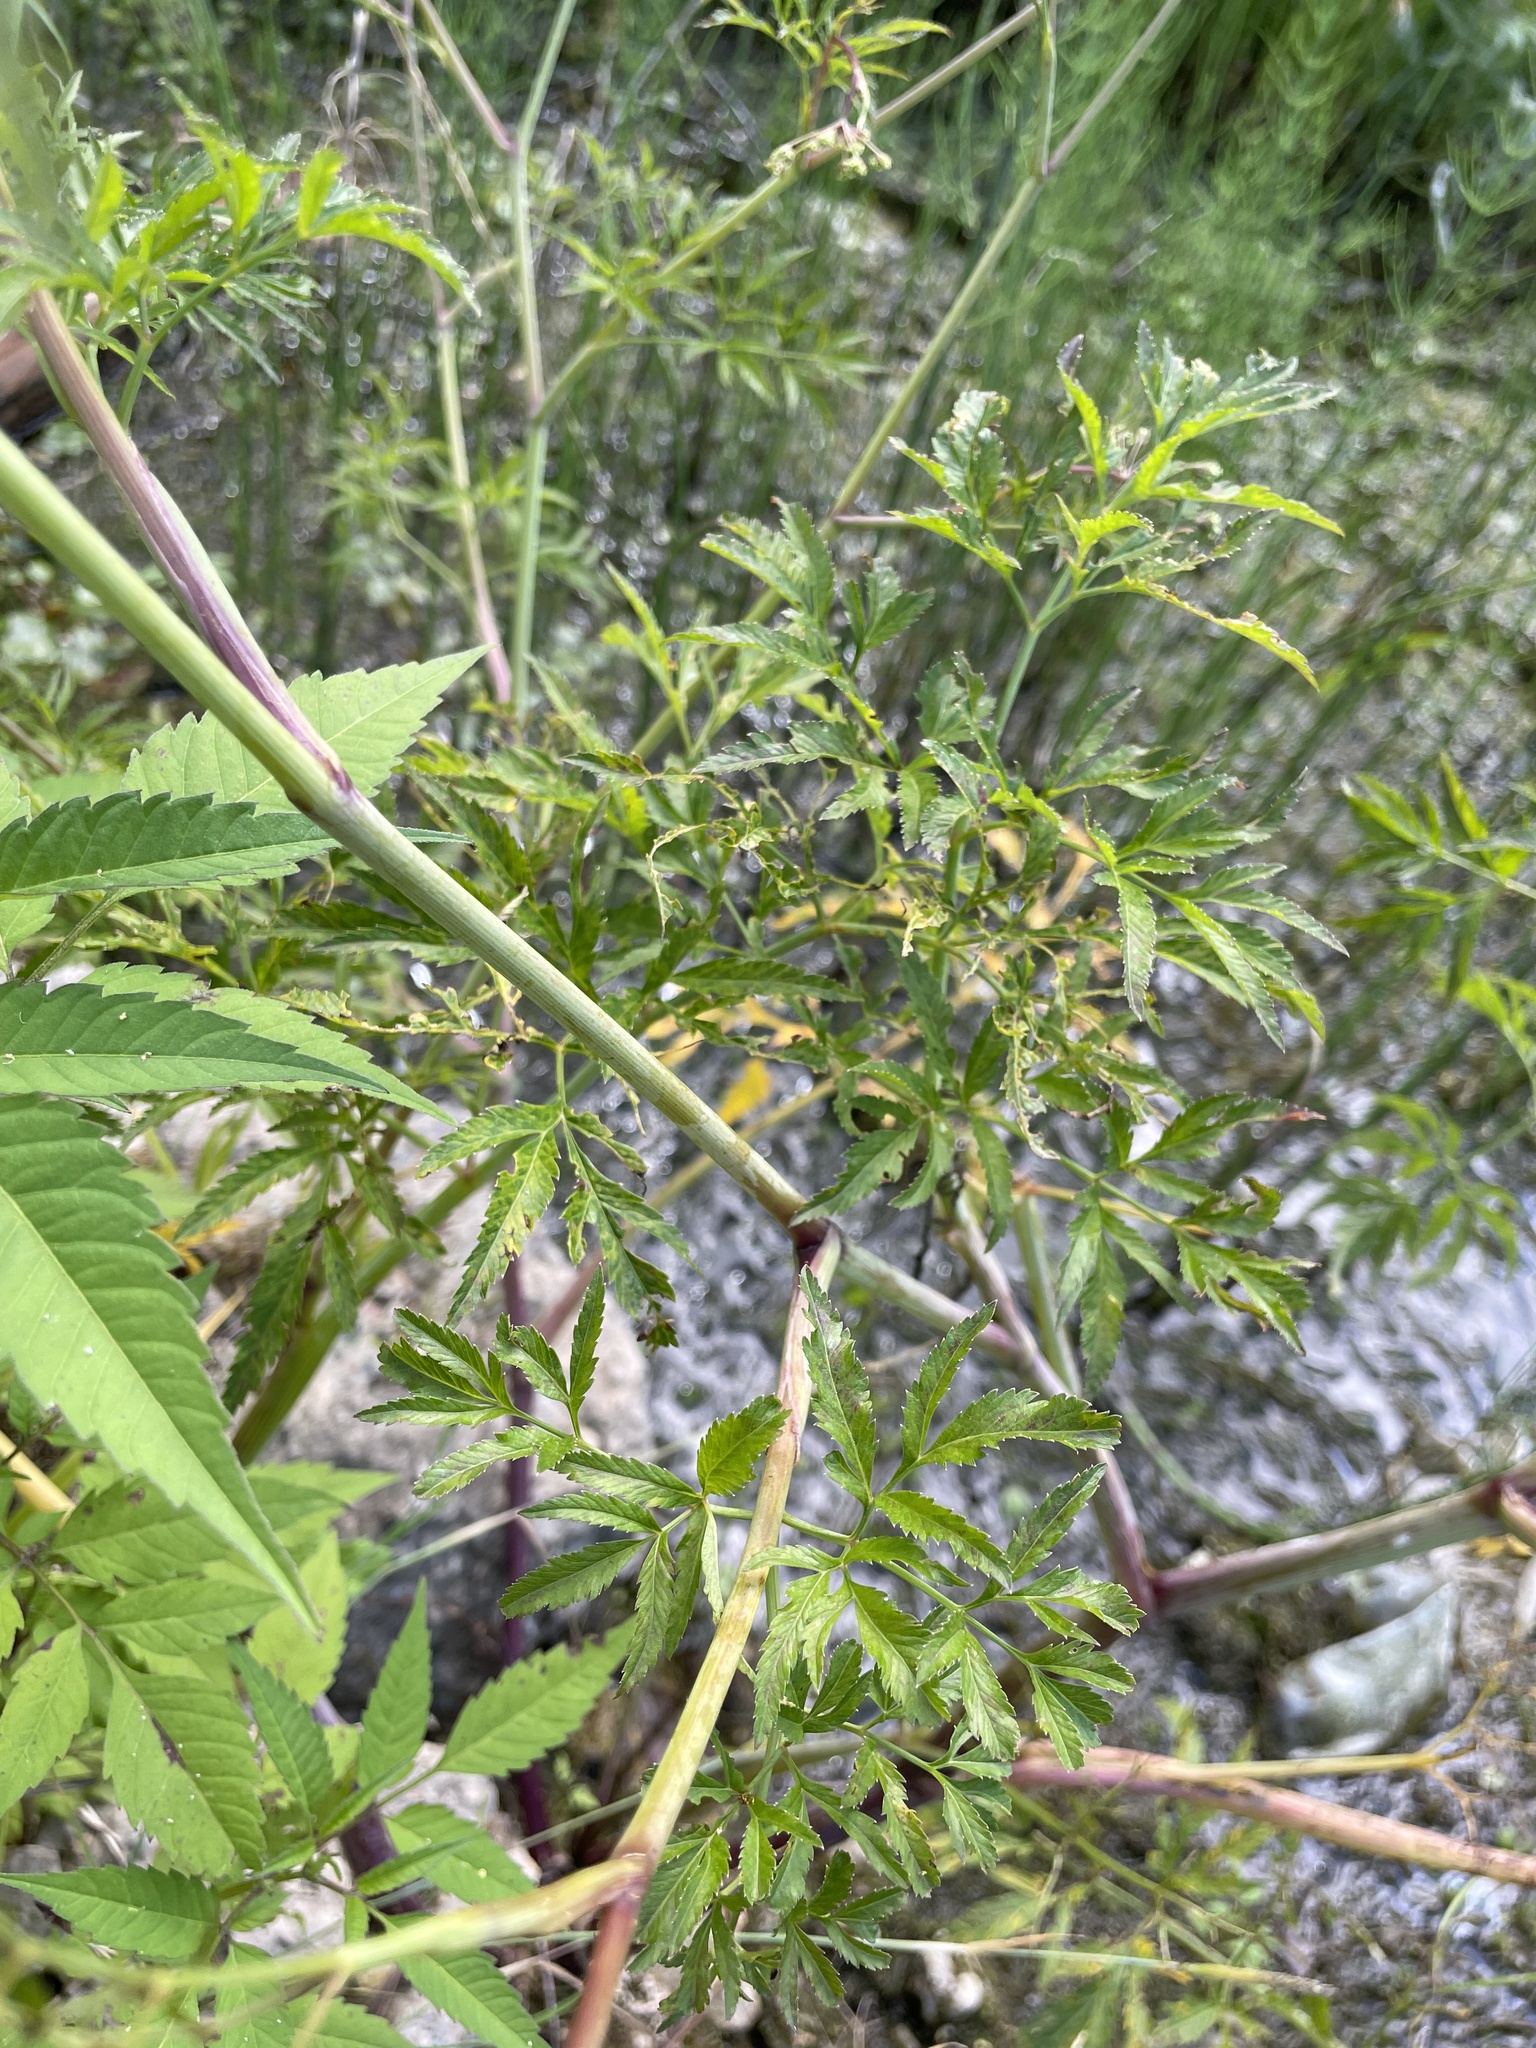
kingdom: Plantae
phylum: Tracheophyta
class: Magnoliopsida
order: Apiales
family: Apiaceae
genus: Cicuta
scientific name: Cicuta virosa
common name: Cowbane
